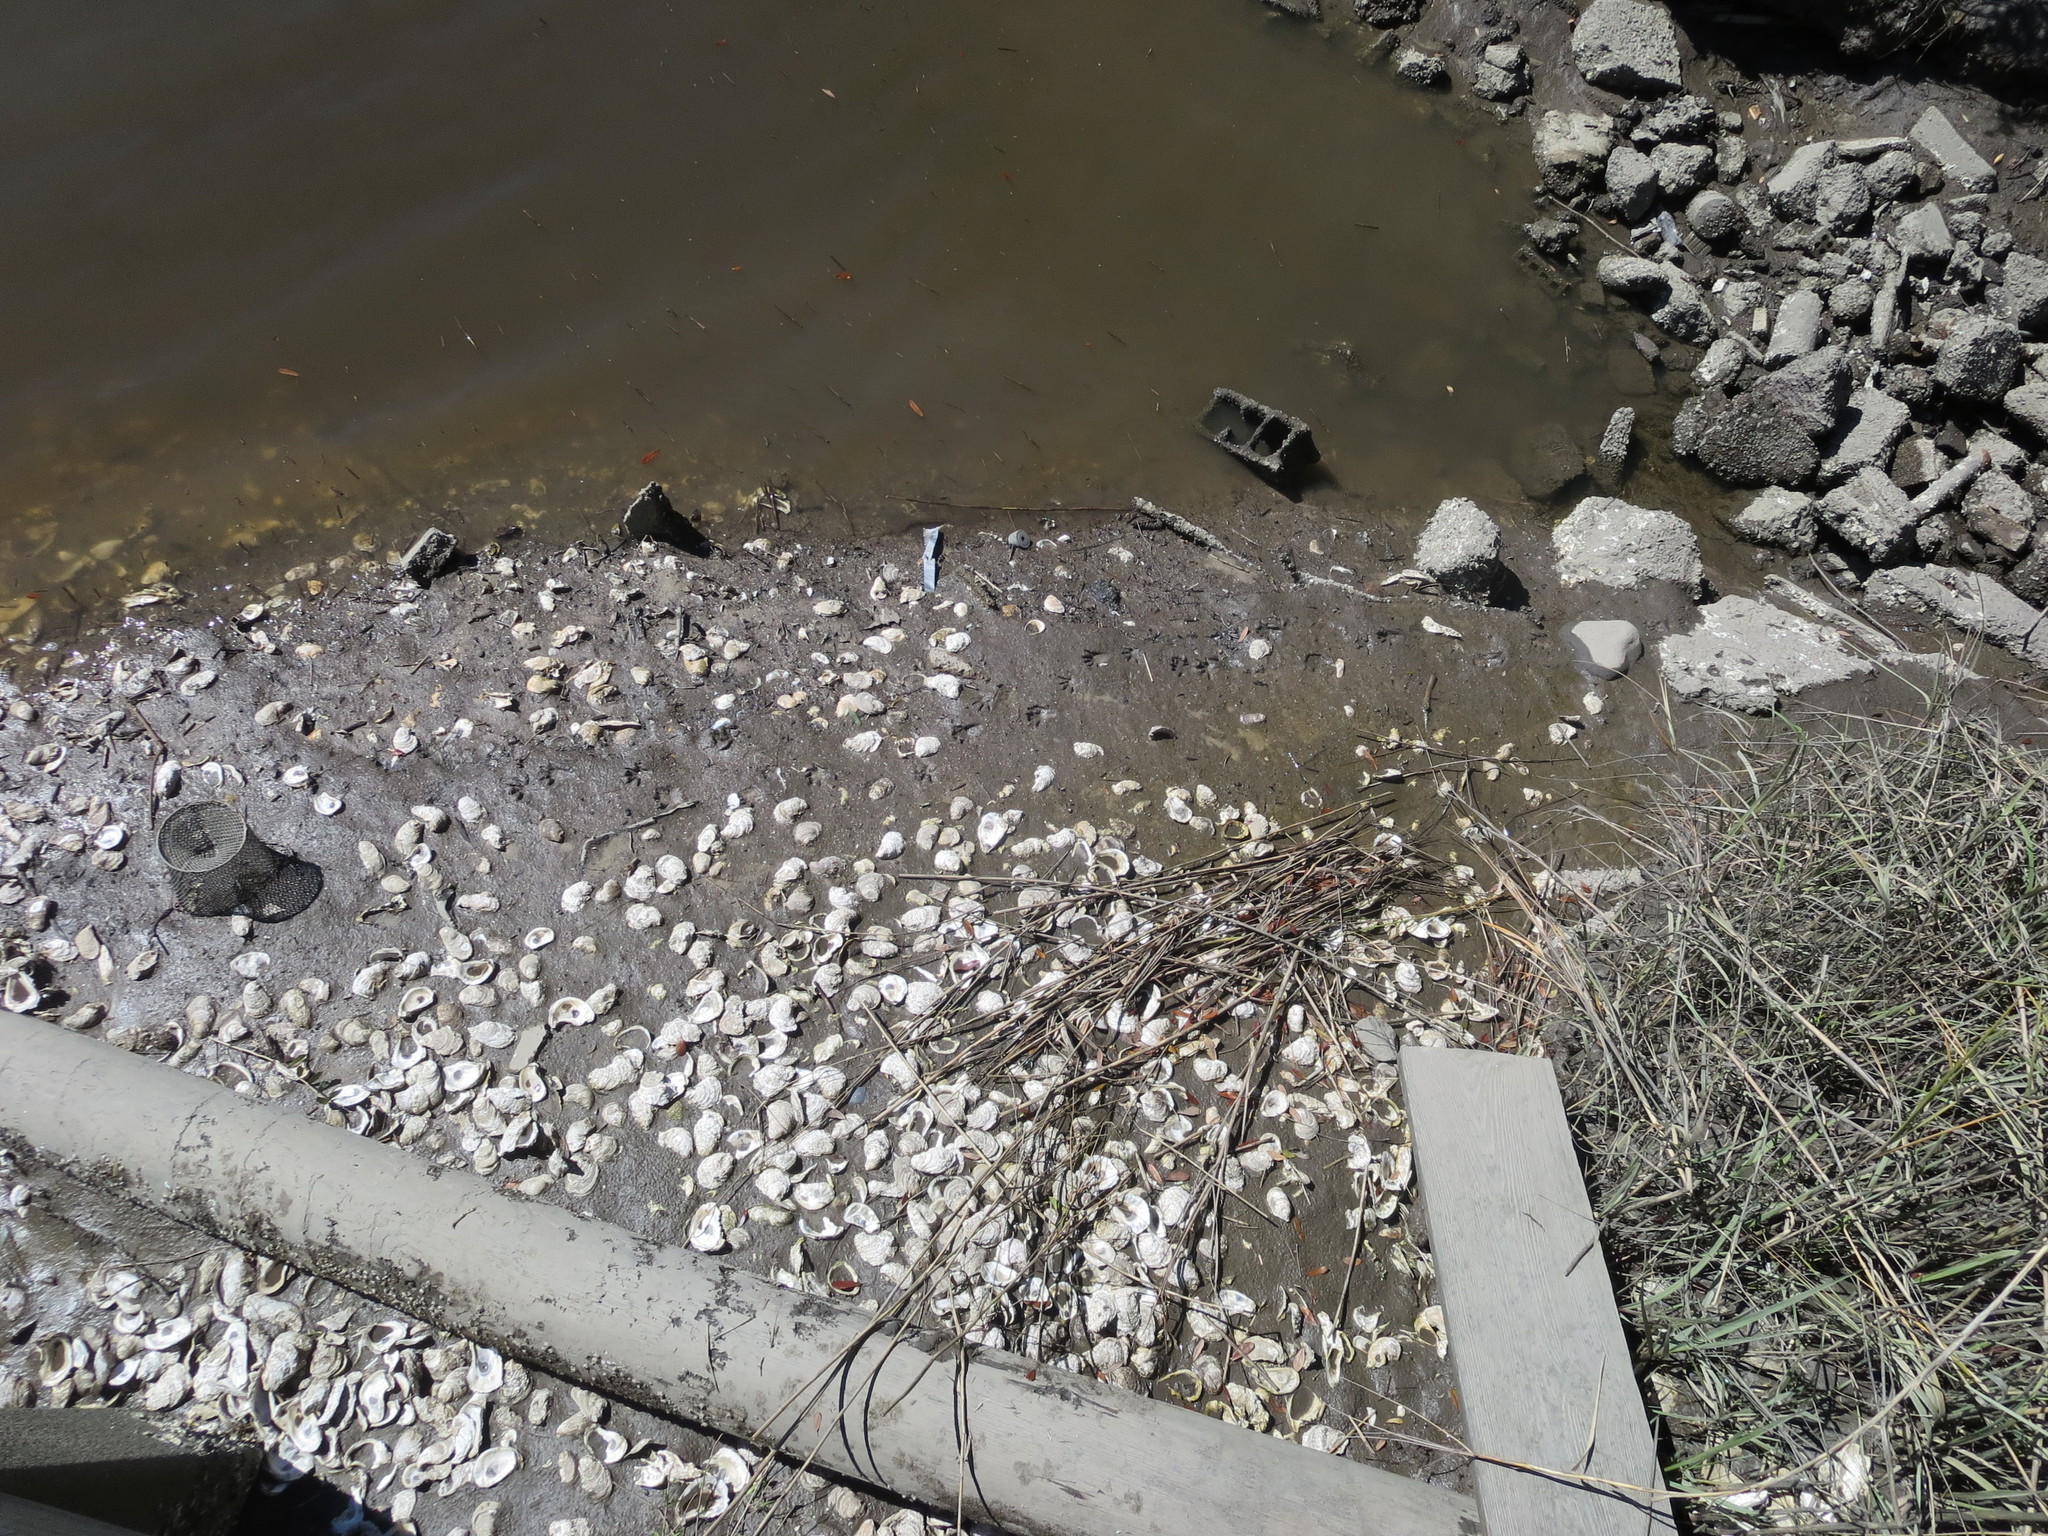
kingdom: Animalia
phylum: Chordata
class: Mammalia
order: Carnivora
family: Procyonidae
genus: Procyon
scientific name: Procyon lotor
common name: Raccoon
